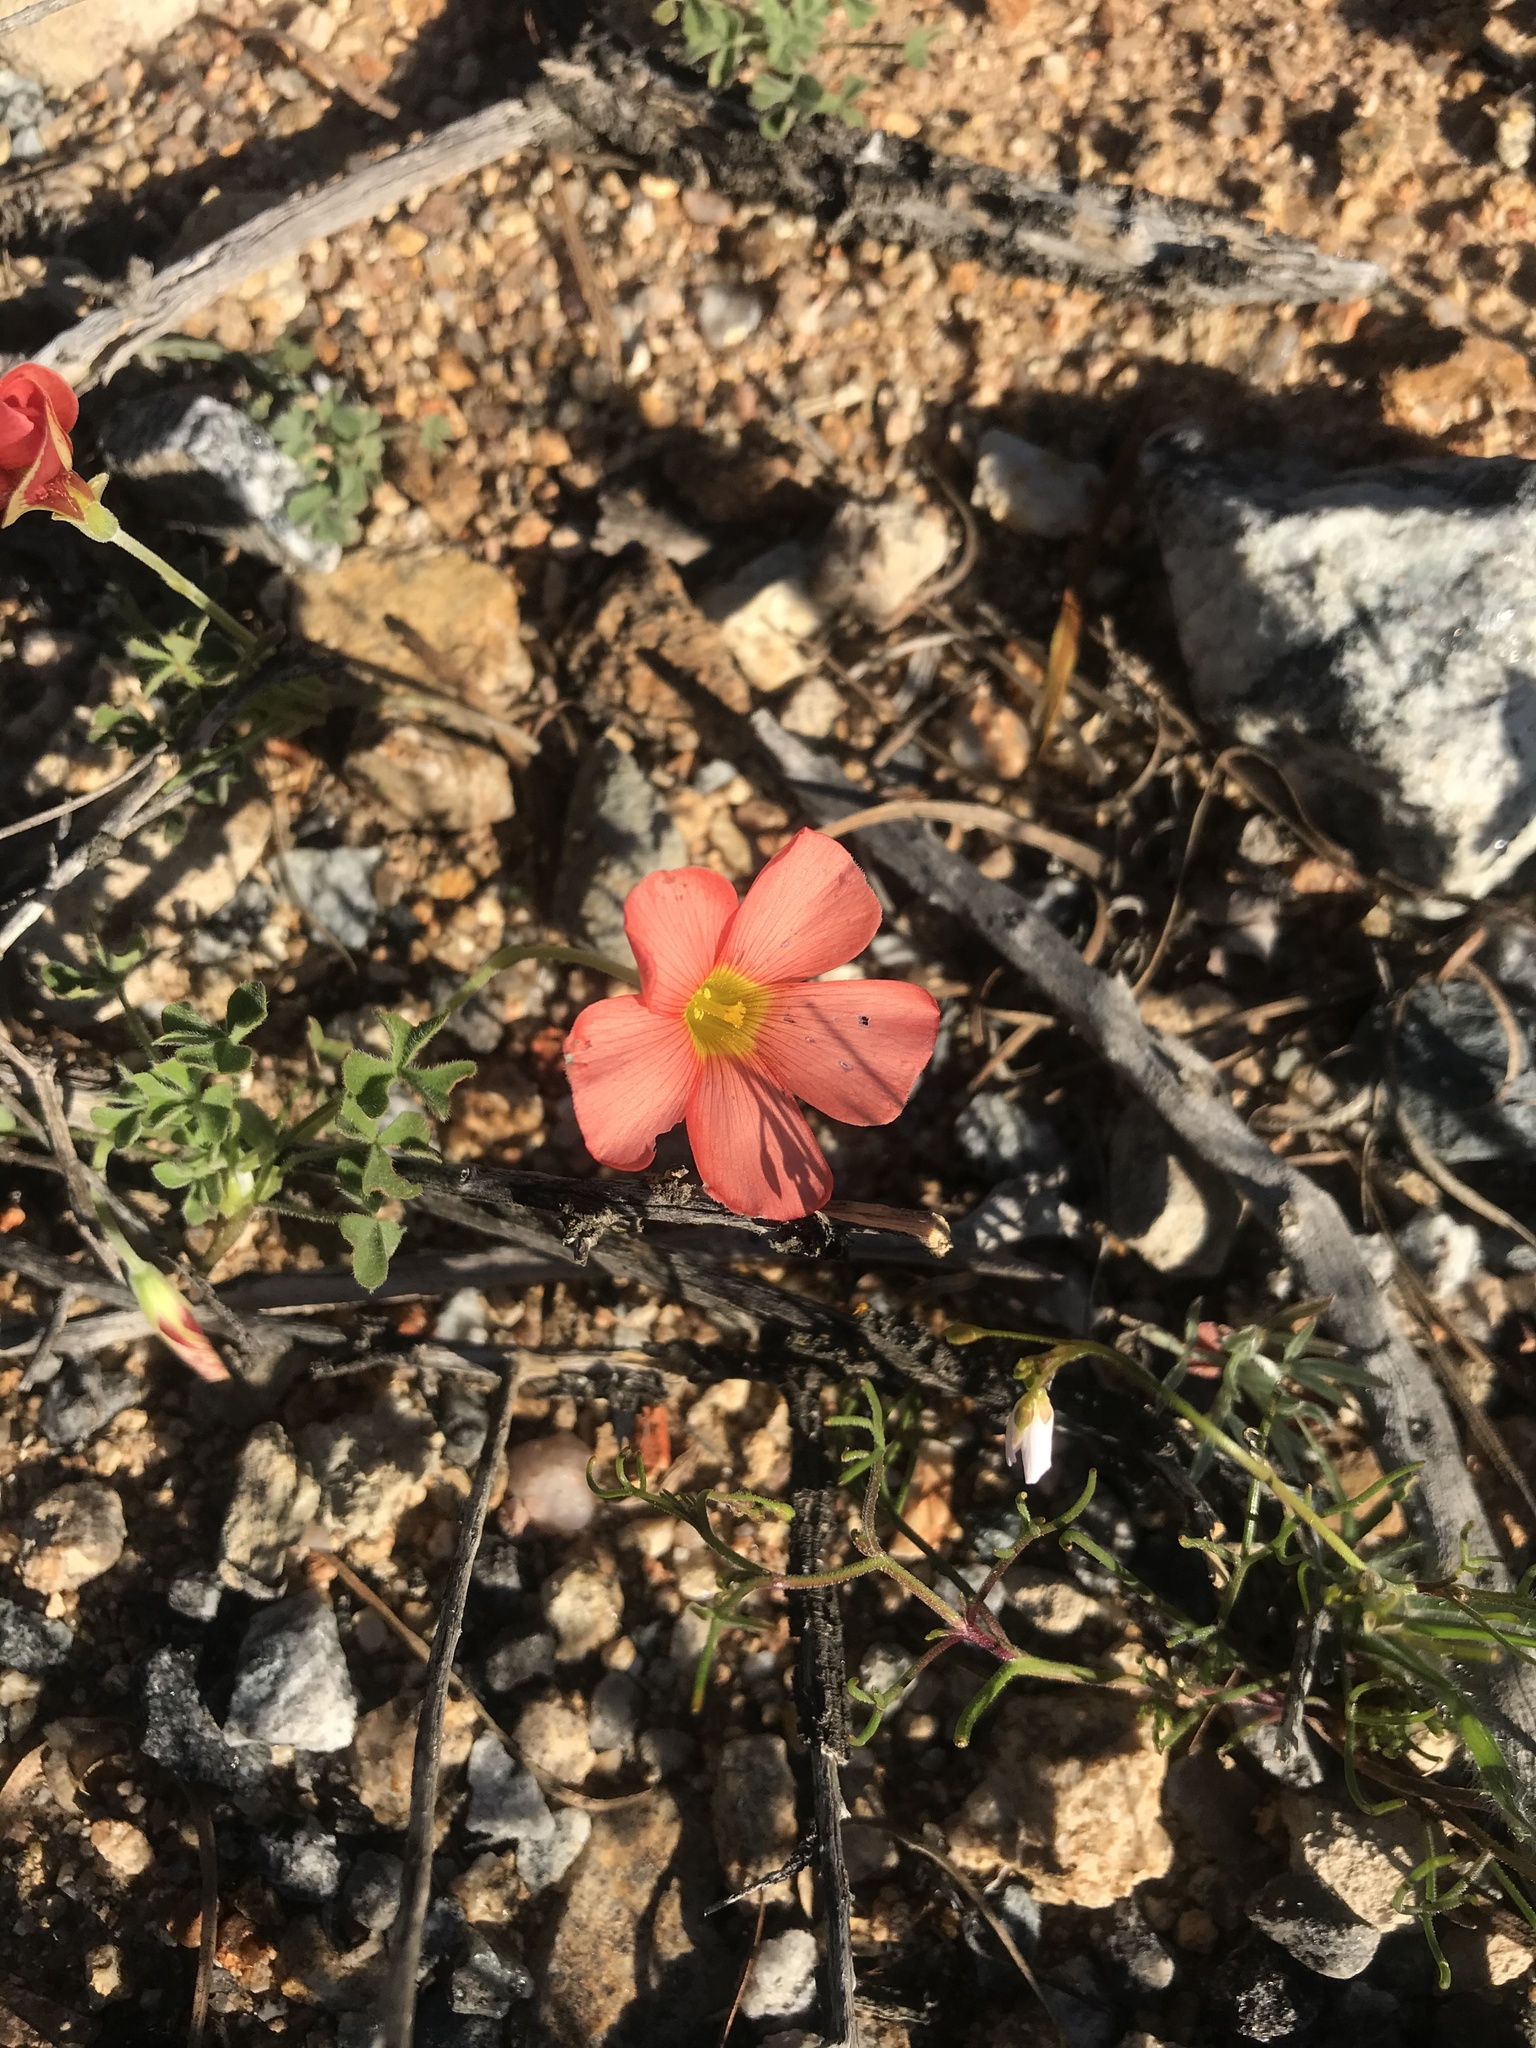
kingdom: Plantae
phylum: Tracheophyta
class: Magnoliopsida
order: Oxalidales
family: Oxalidaceae
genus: Oxalis
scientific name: Oxalis obtusa
